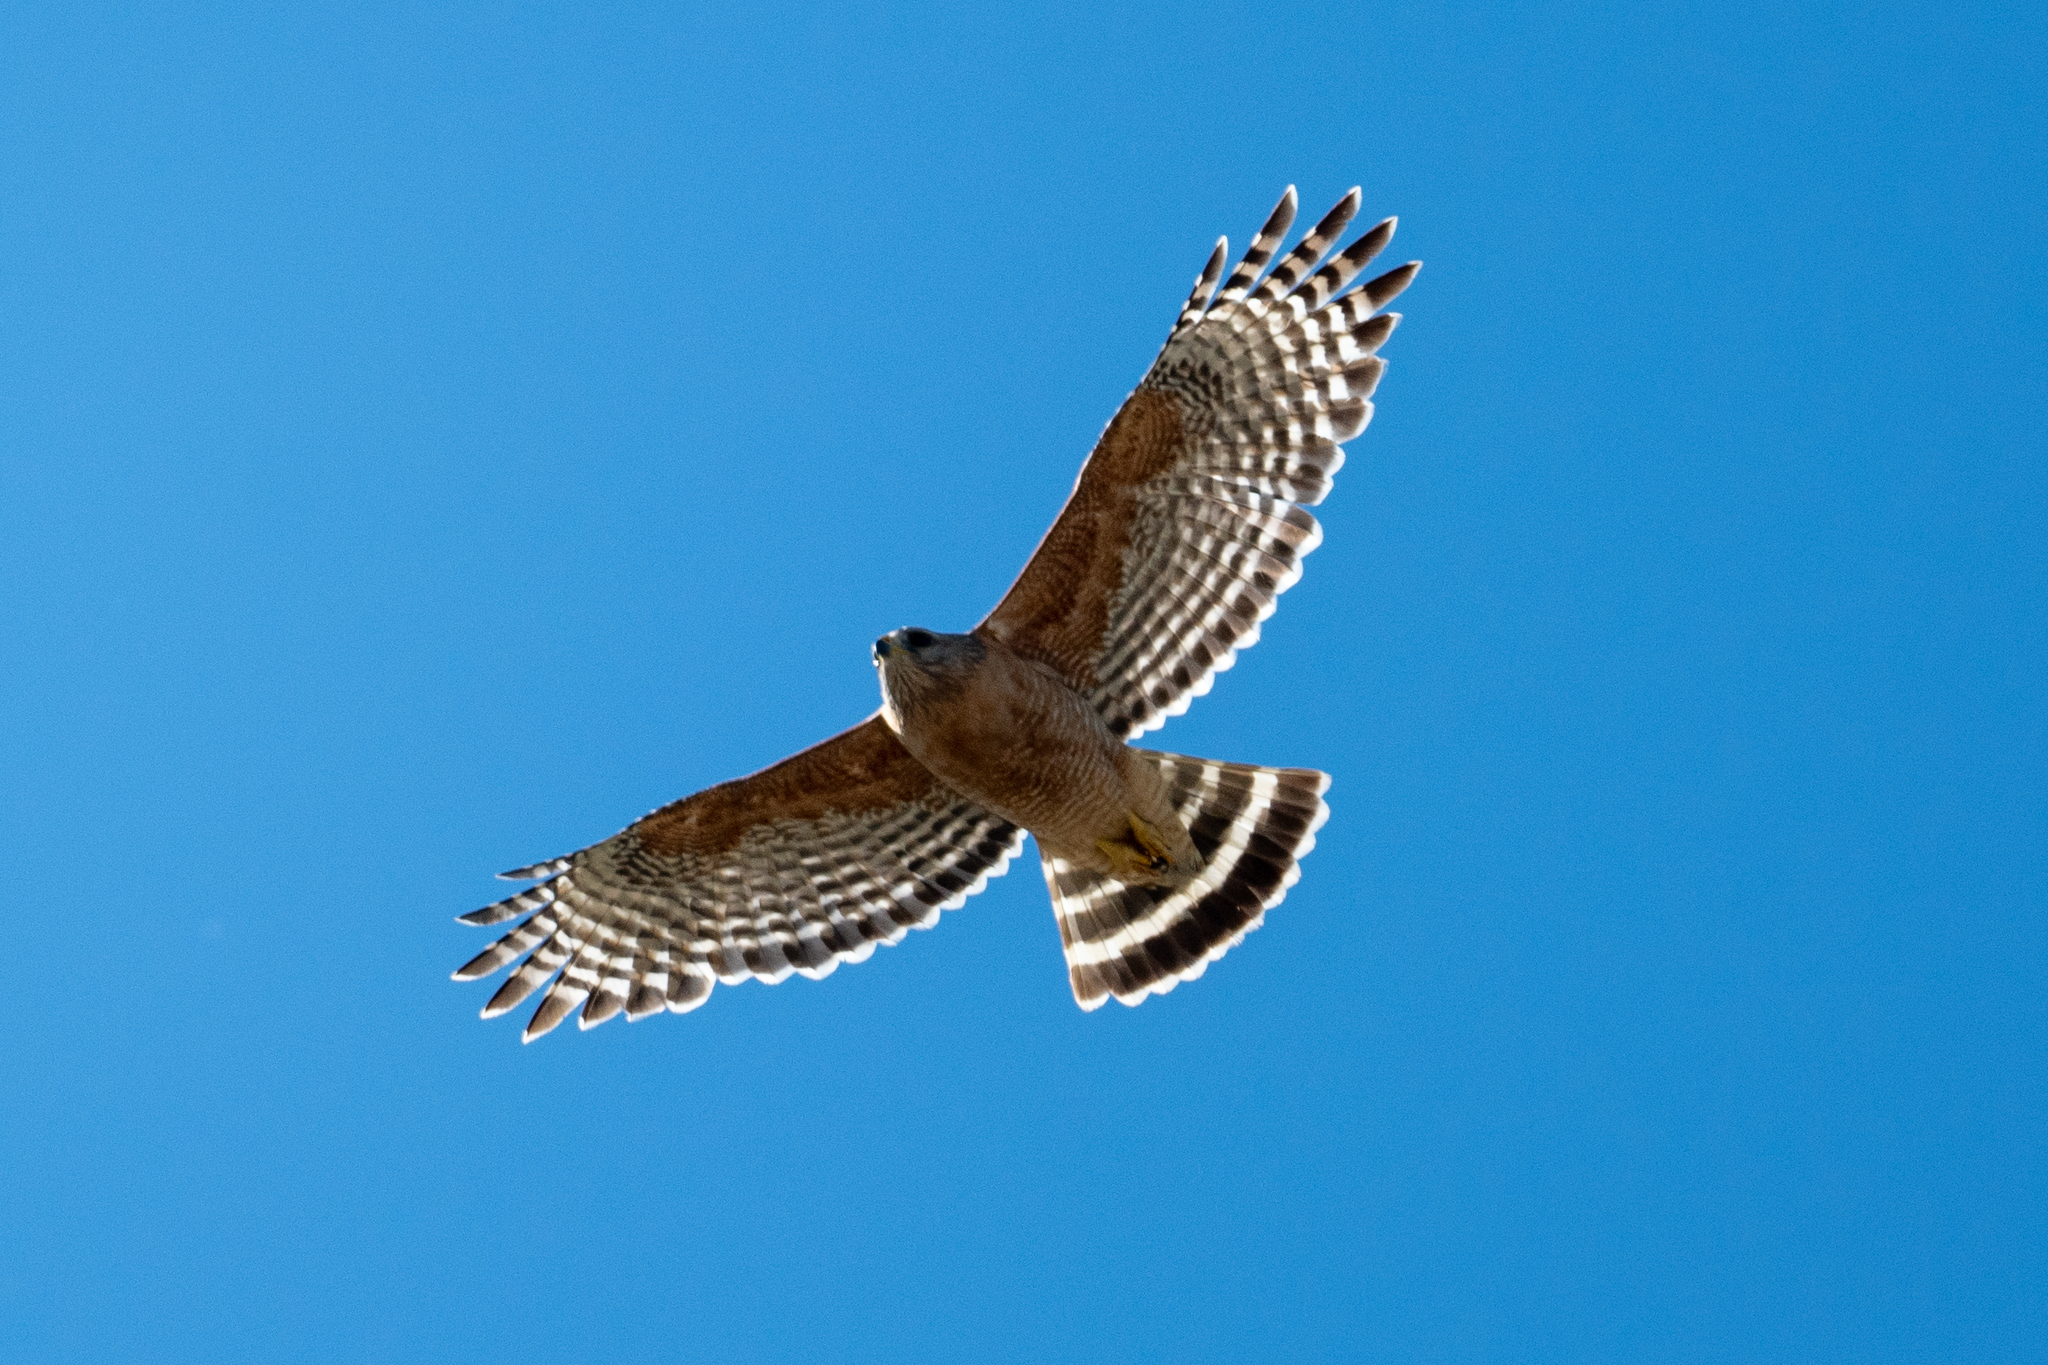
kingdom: Animalia
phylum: Chordata
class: Aves
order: Accipitriformes
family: Accipitridae
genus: Buteo
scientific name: Buteo lineatus
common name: Red-shouldered hawk
